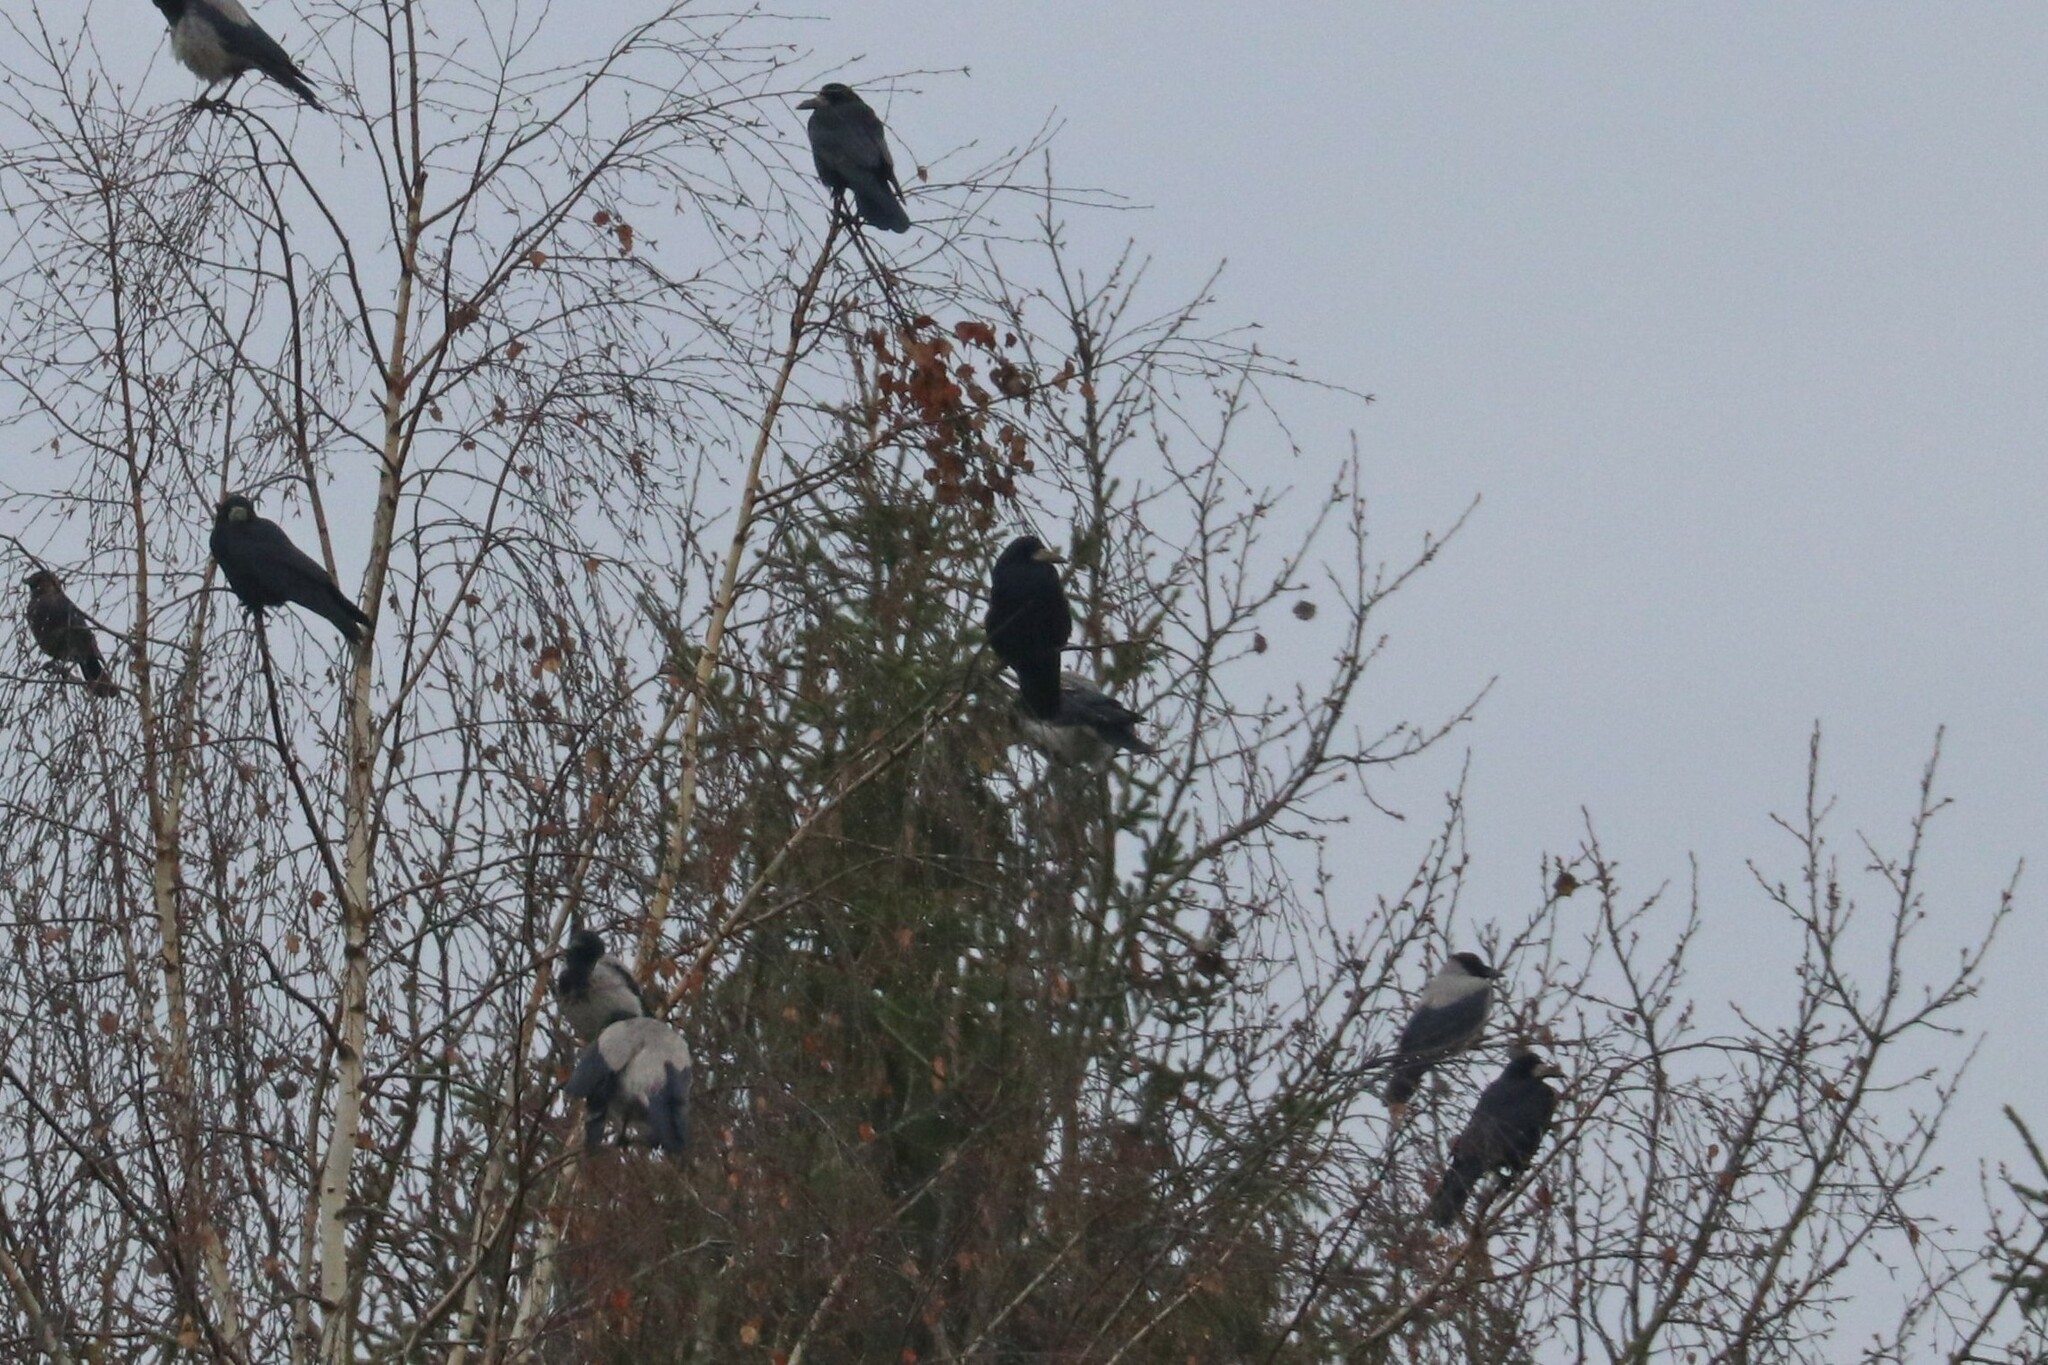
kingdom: Animalia
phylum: Chordata
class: Aves
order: Passeriformes
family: Corvidae
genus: Corvus
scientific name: Corvus frugilegus
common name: Rook
